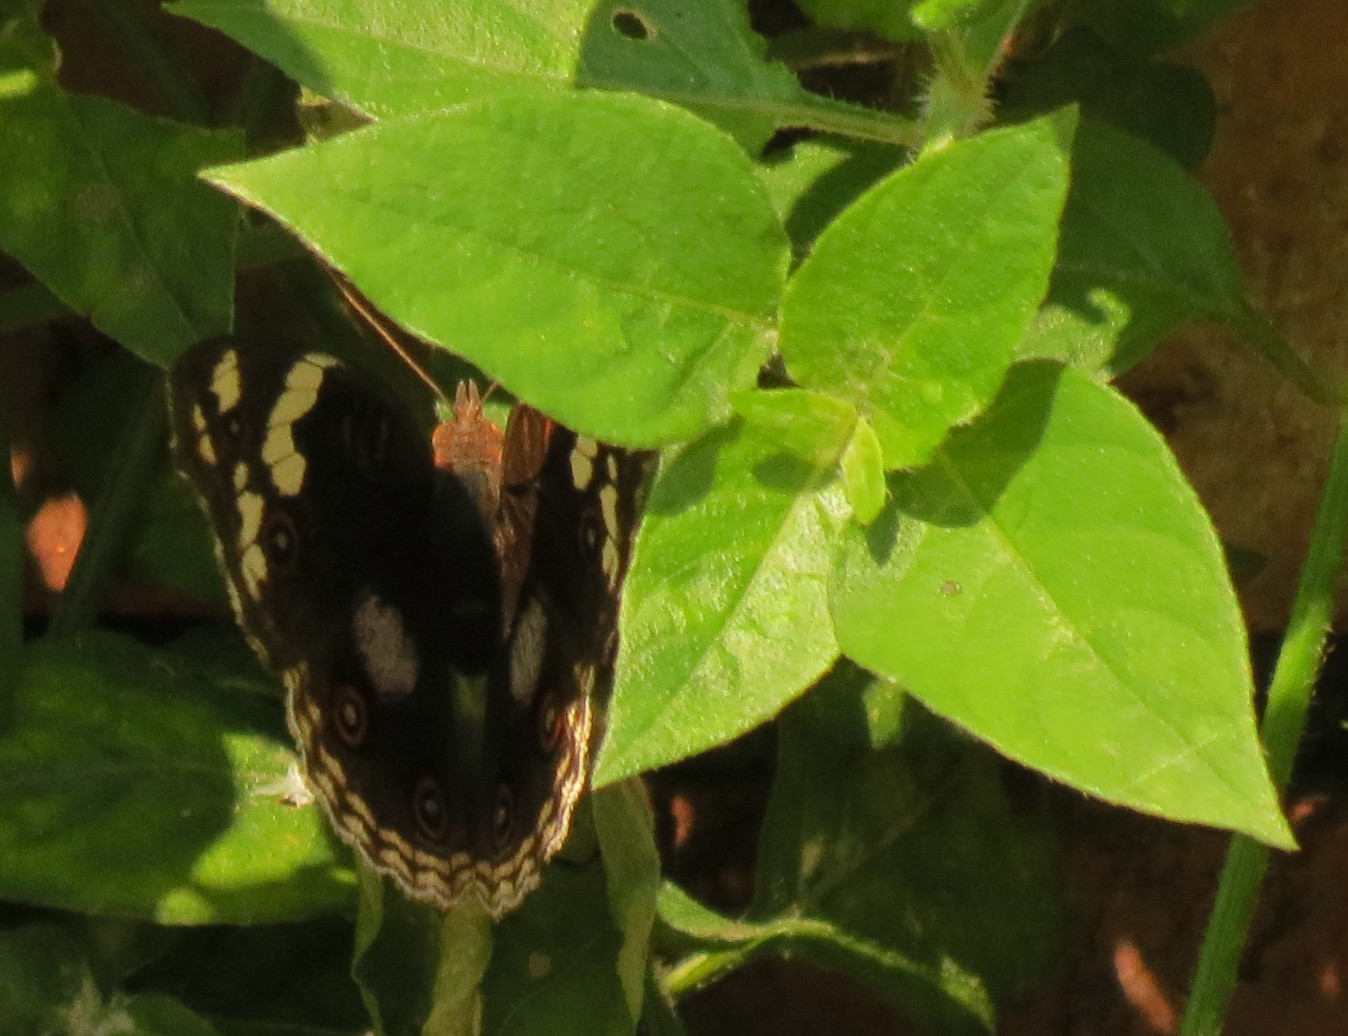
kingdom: Animalia
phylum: Arthropoda
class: Insecta
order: Lepidoptera
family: Nymphalidae
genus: Junonia
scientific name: Junonia oenone
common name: Dark blue pansy
